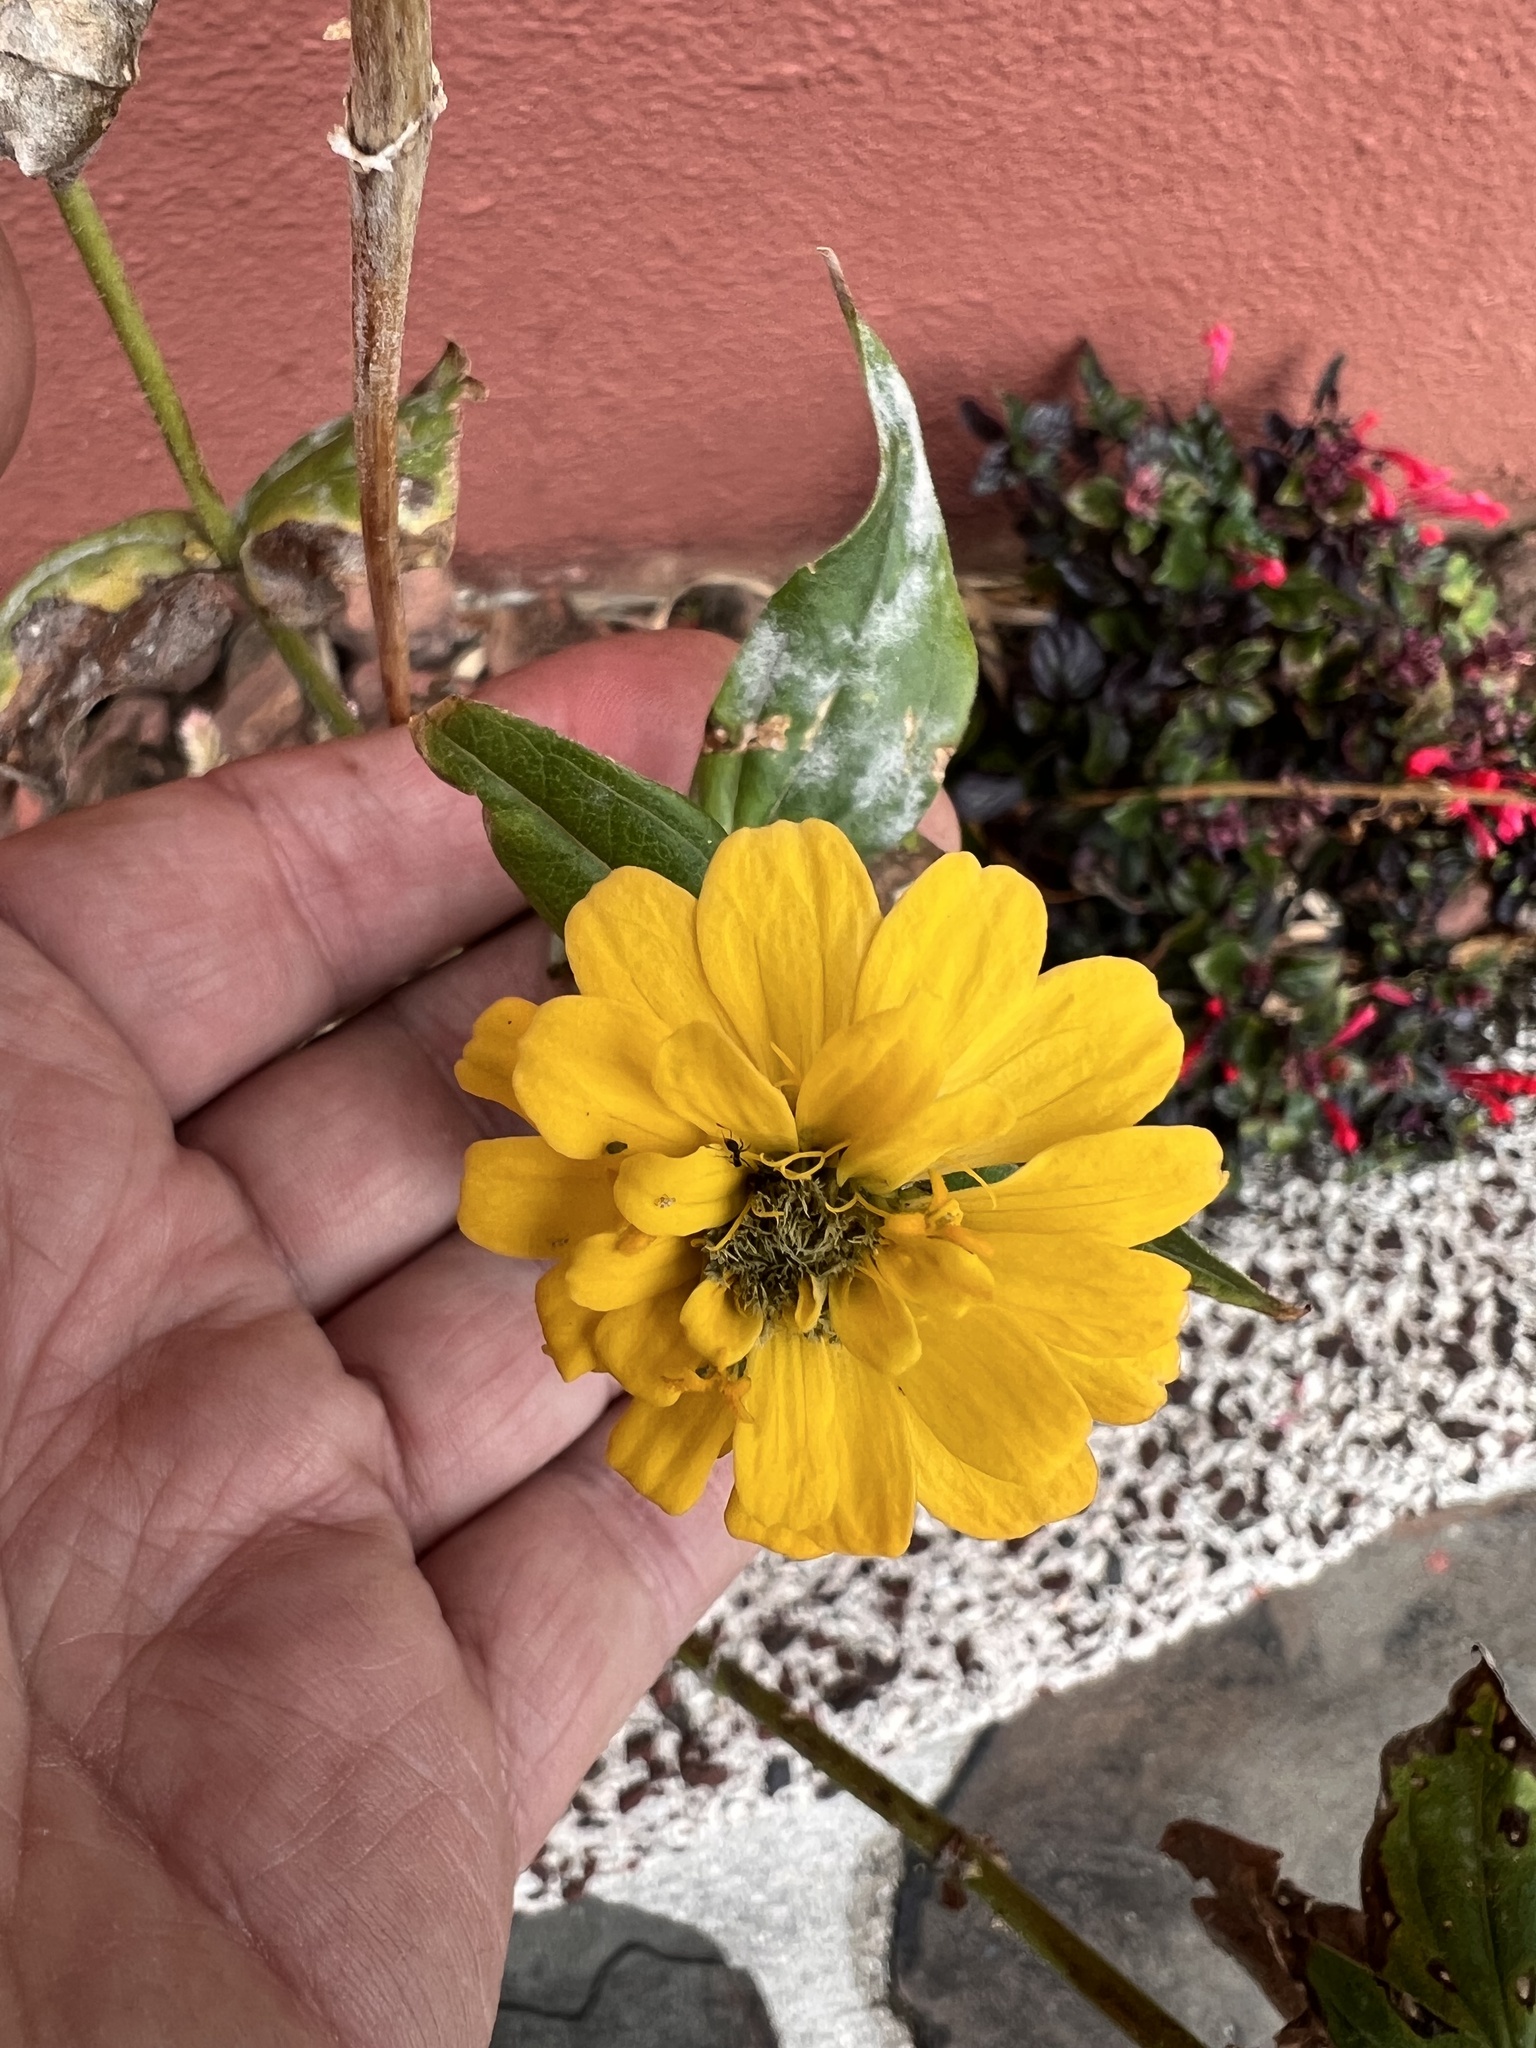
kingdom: Plantae
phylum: Tracheophyta
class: Magnoliopsida
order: Asterales
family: Asteraceae
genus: Zinnia
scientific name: Zinnia elegans
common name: Youth-and-age
